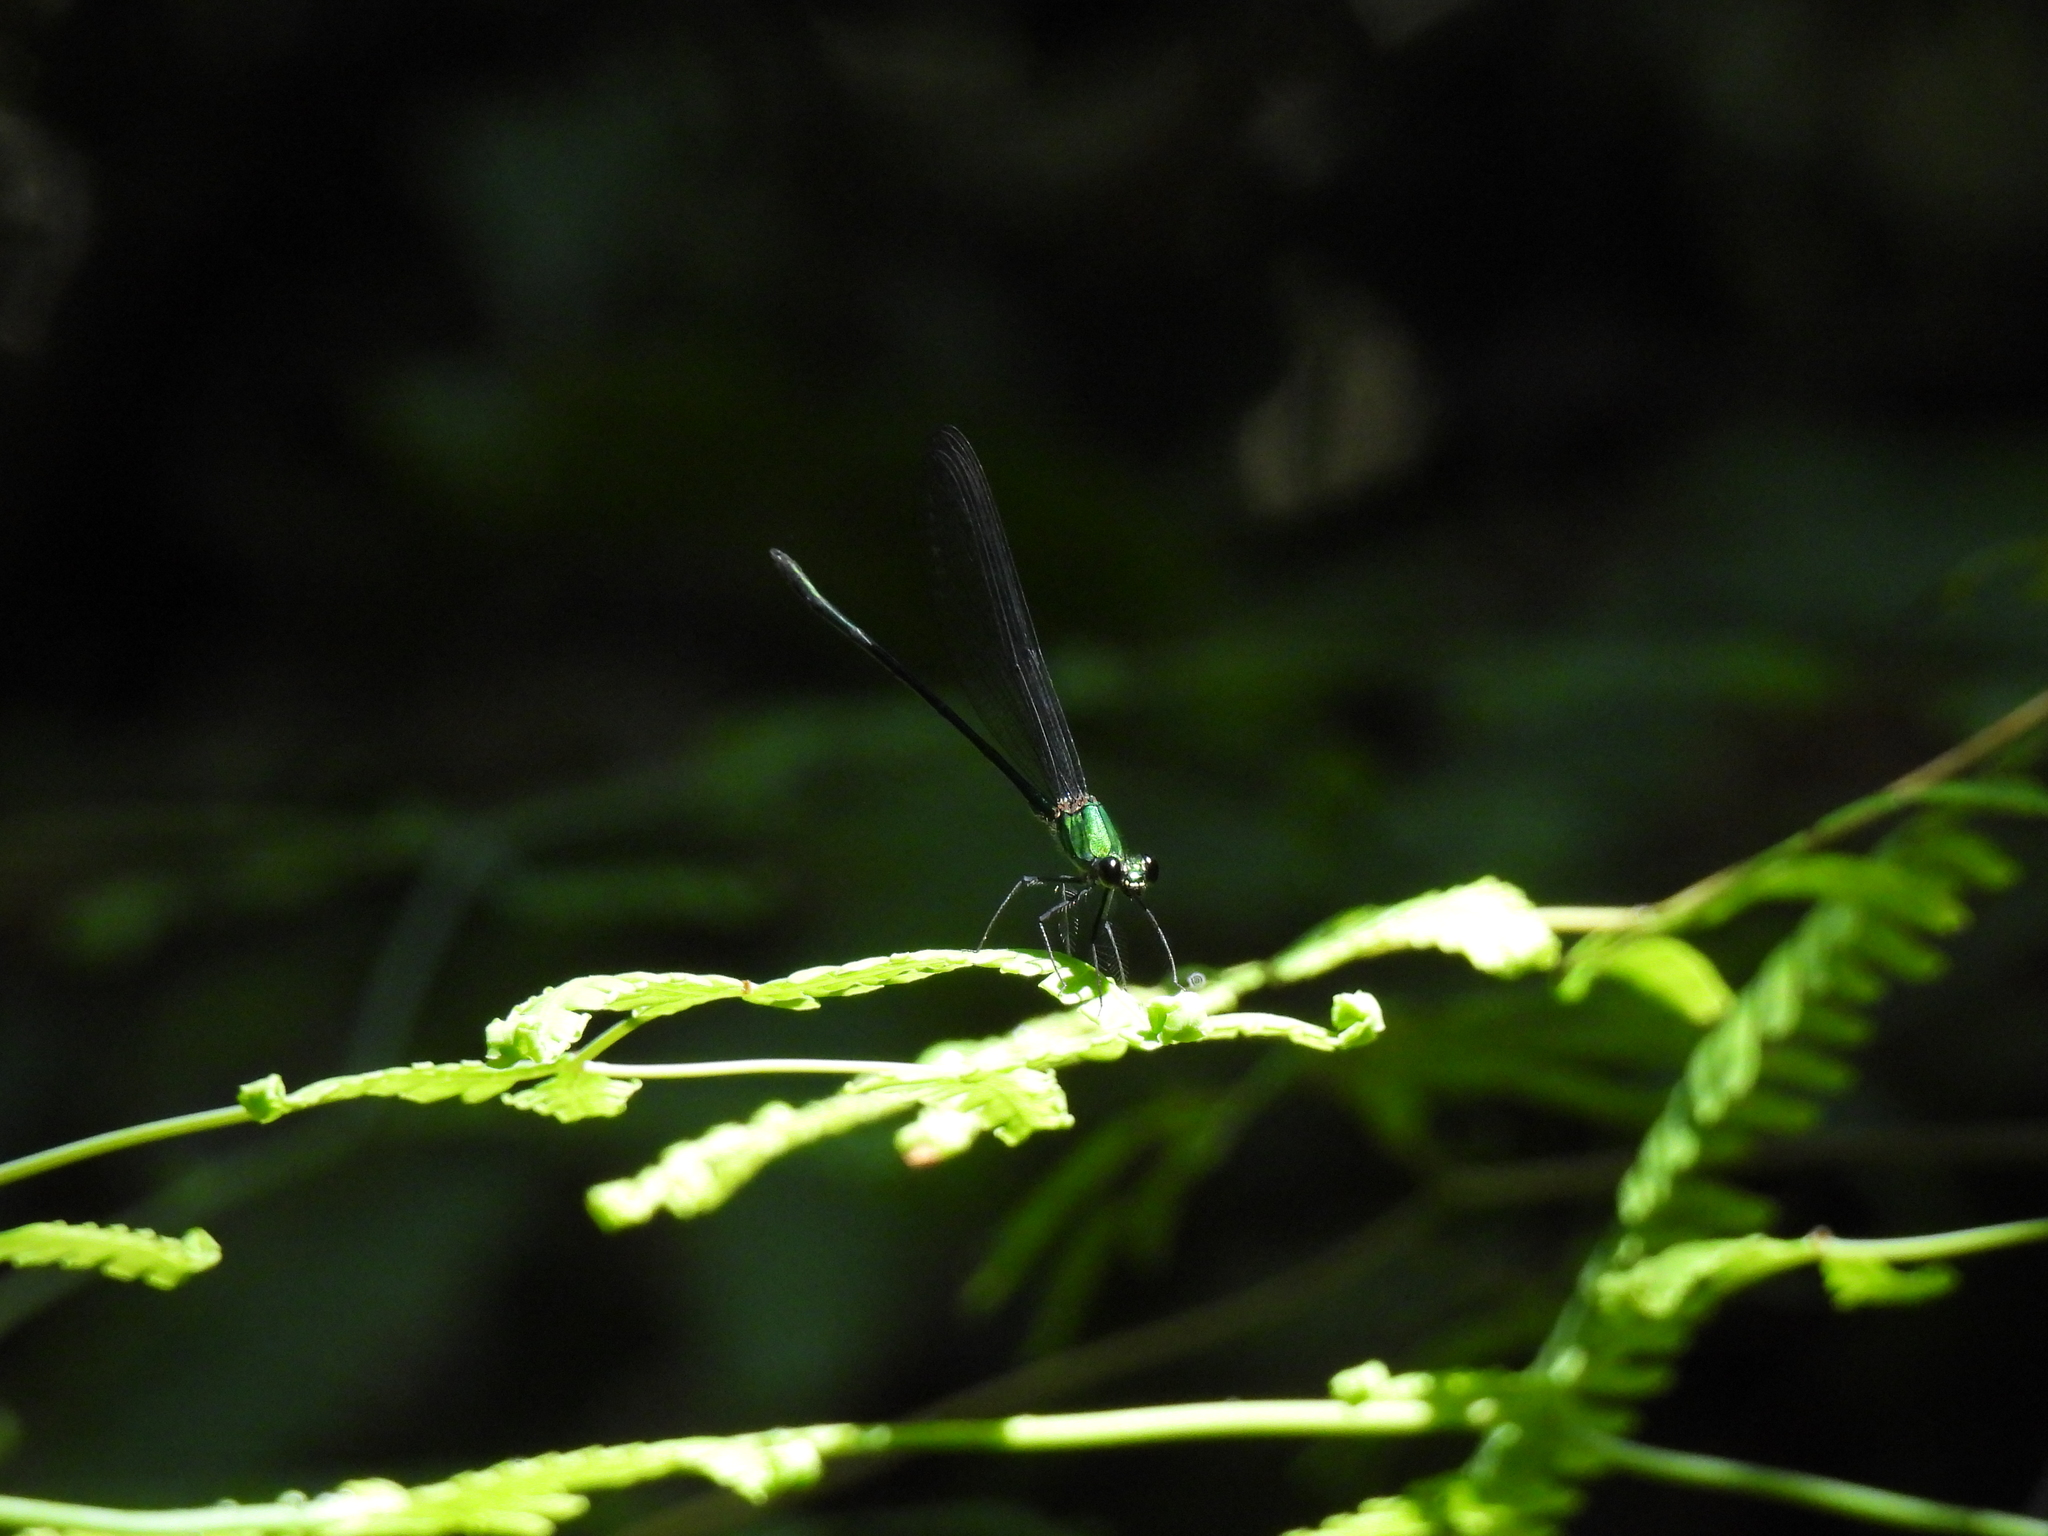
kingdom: Animalia
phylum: Arthropoda
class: Insecta
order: Odonata
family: Calopterygidae
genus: Vestalis
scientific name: Vestalis amethystina
